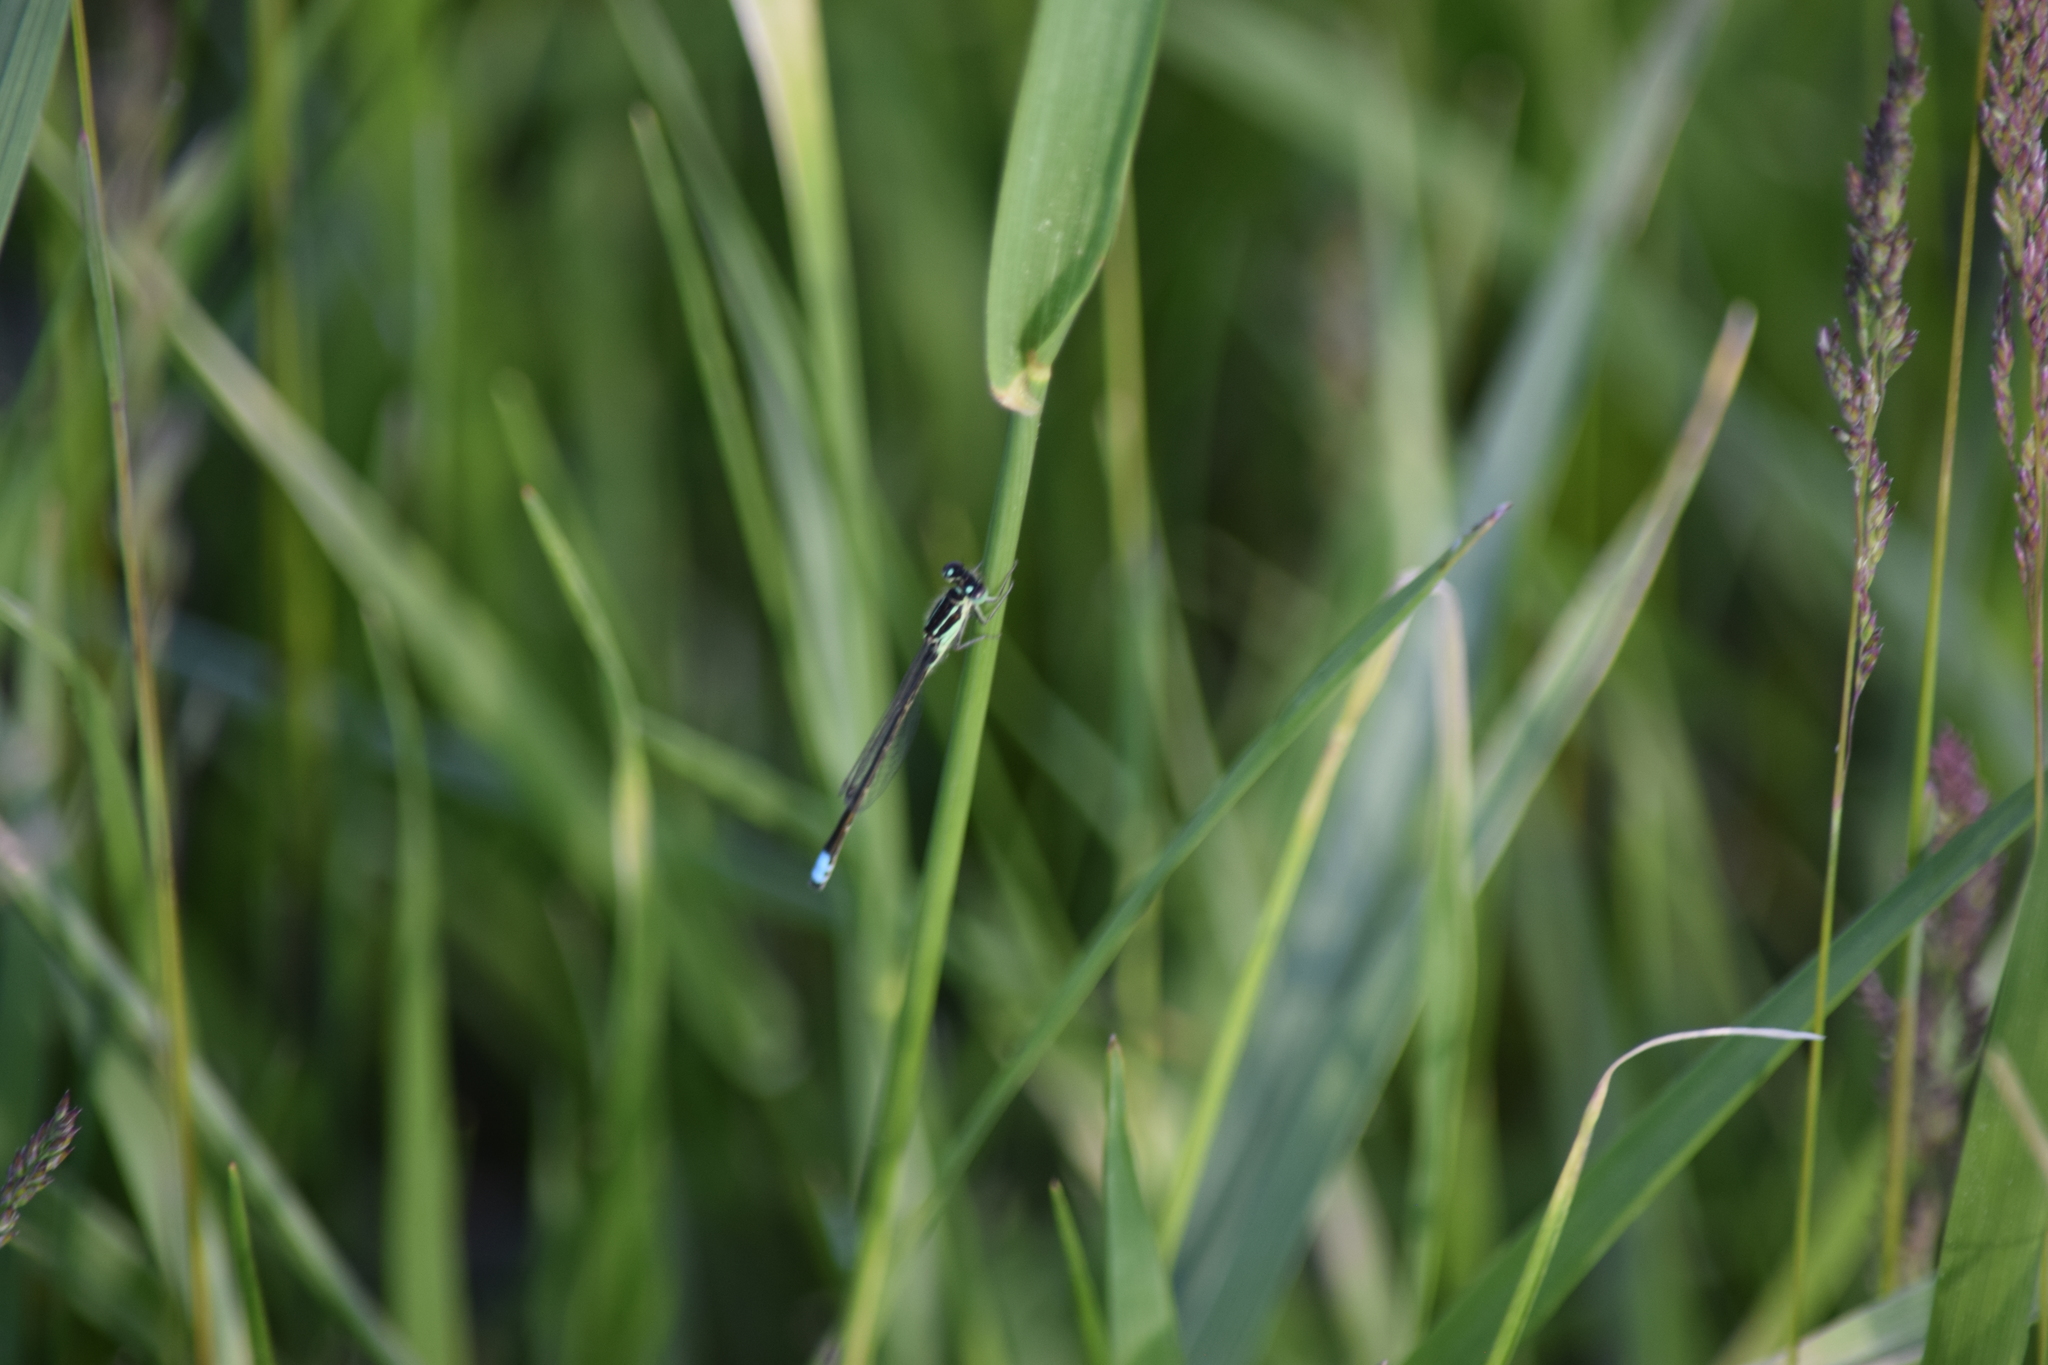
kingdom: Animalia
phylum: Arthropoda
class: Insecta
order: Odonata
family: Coenagrionidae
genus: Ischnura
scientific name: Ischnura verticalis
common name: Eastern forktail
